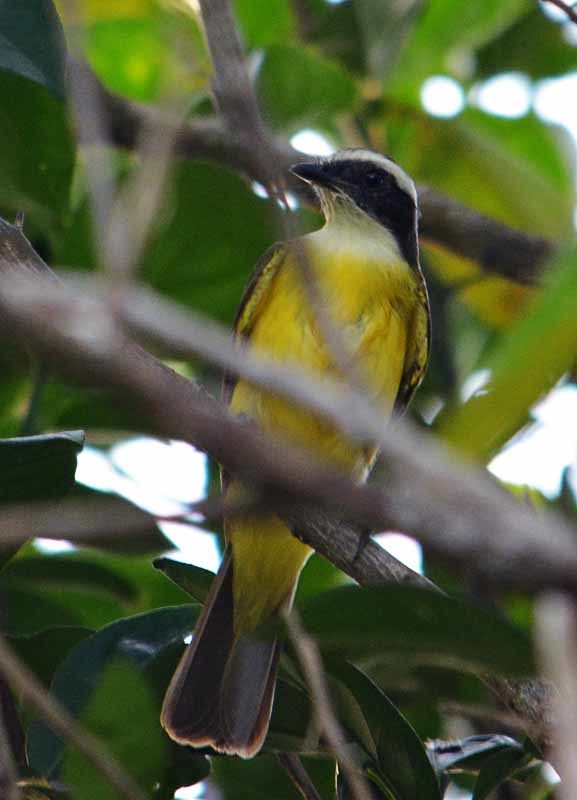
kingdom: Animalia
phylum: Chordata
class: Aves
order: Passeriformes
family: Tyrannidae
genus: Myiozetetes
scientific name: Myiozetetes similis
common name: Social flycatcher
